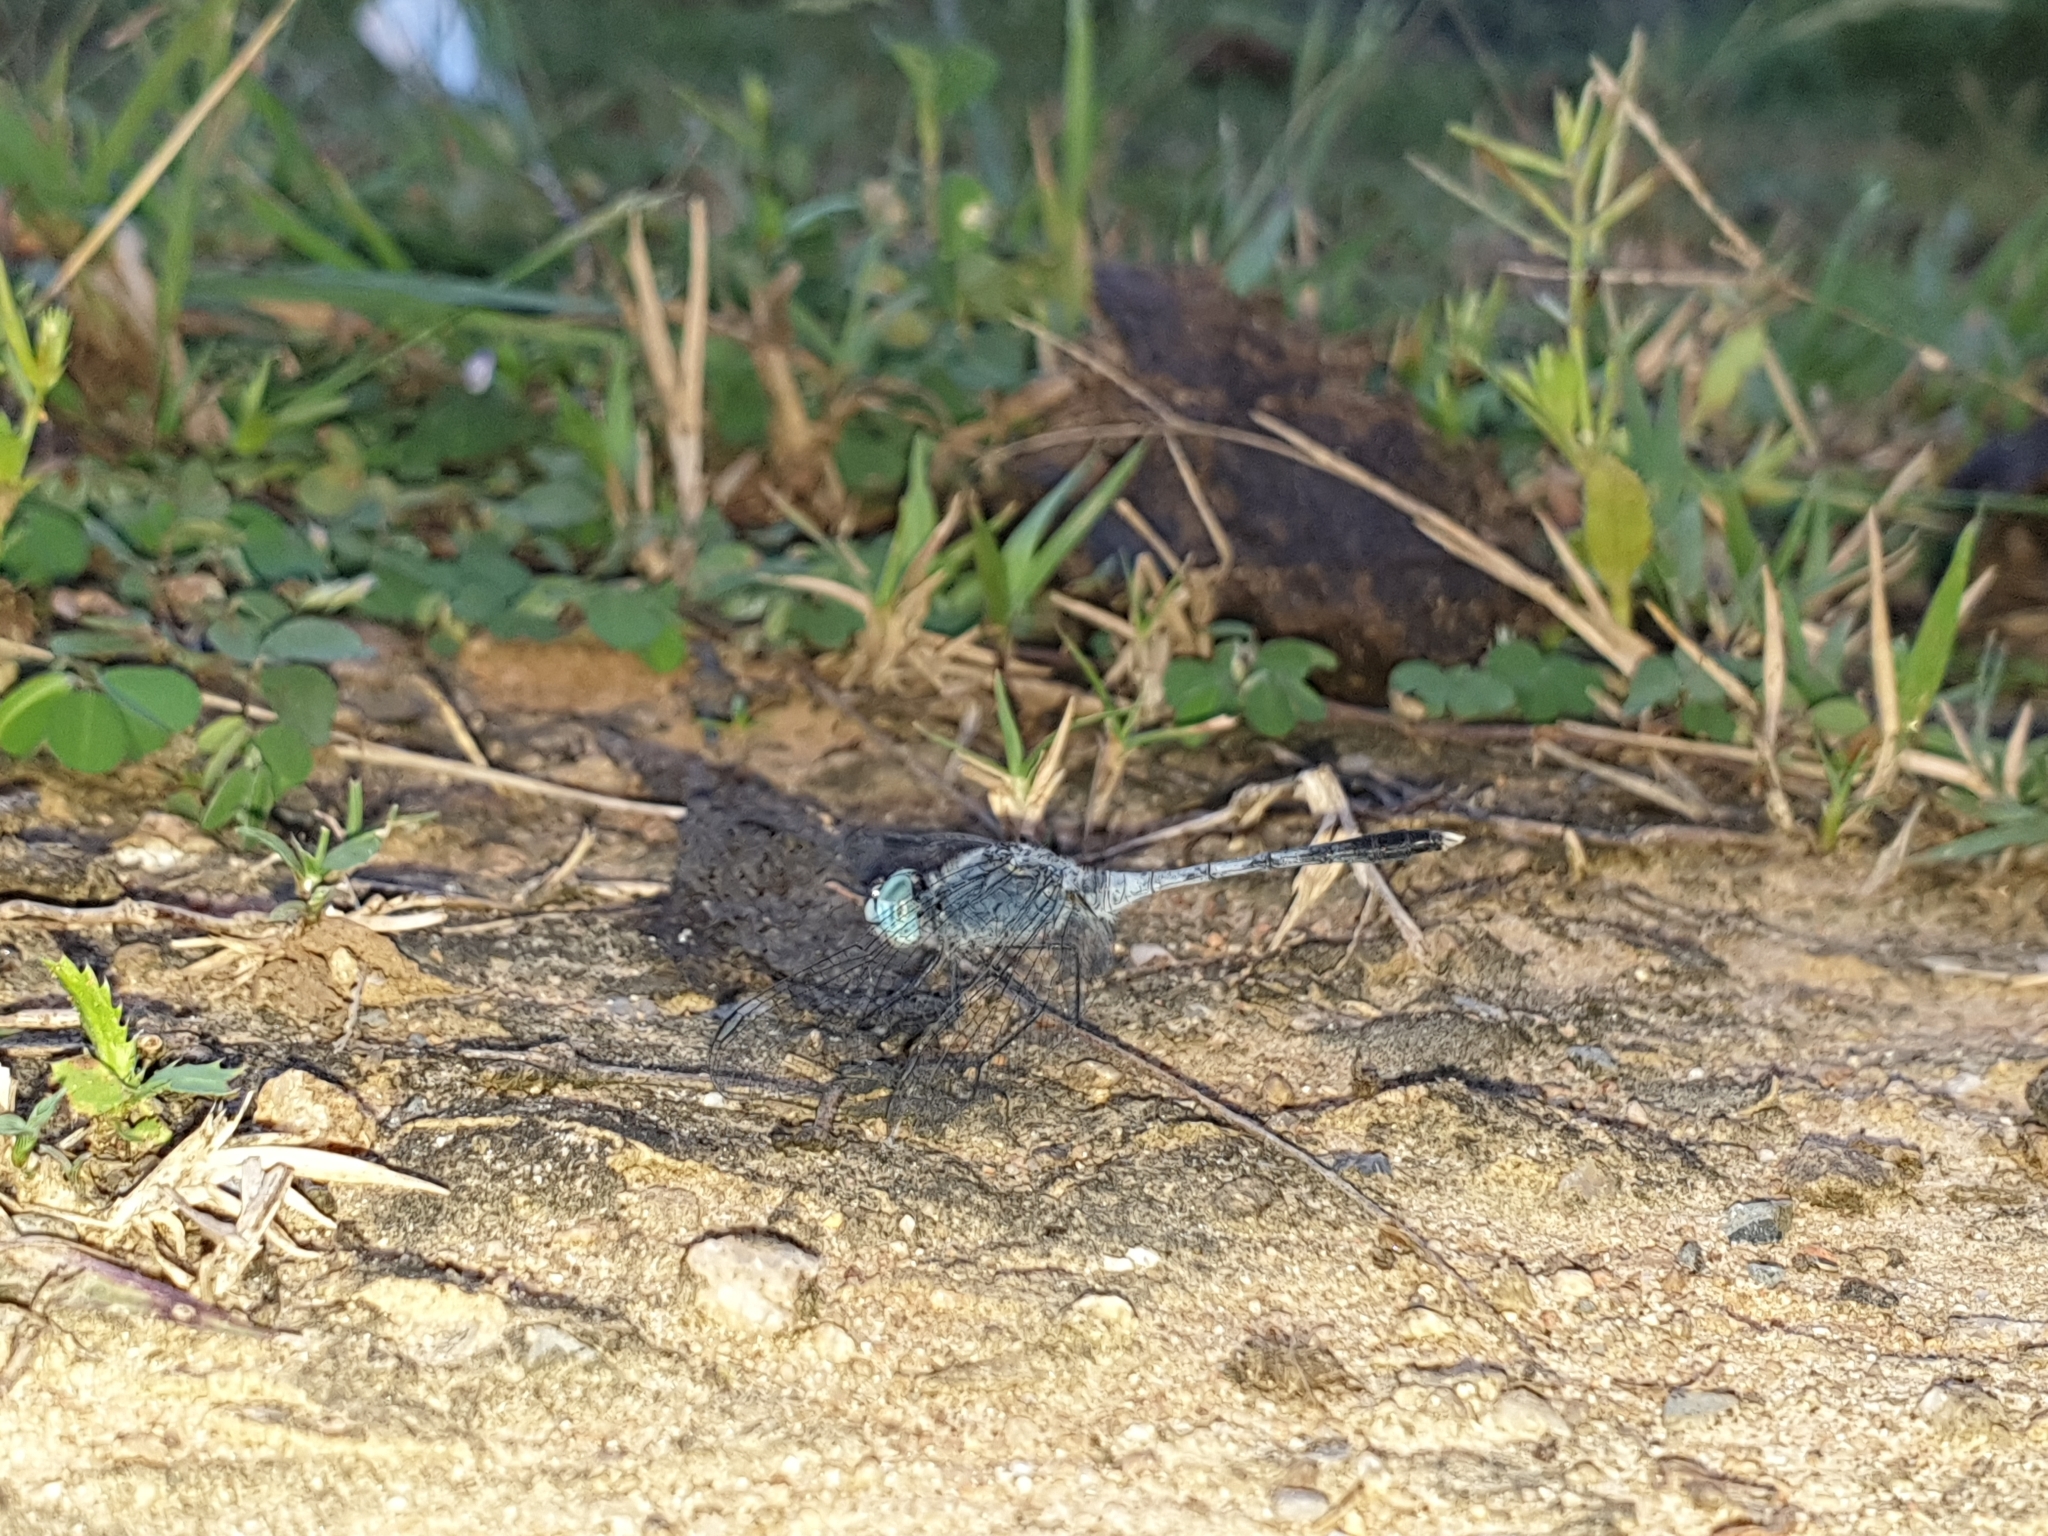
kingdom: Animalia
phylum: Arthropoda
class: Insecta
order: Odonata
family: Libellulidae
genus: Diplacodes
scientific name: Diplacodes trivialis
